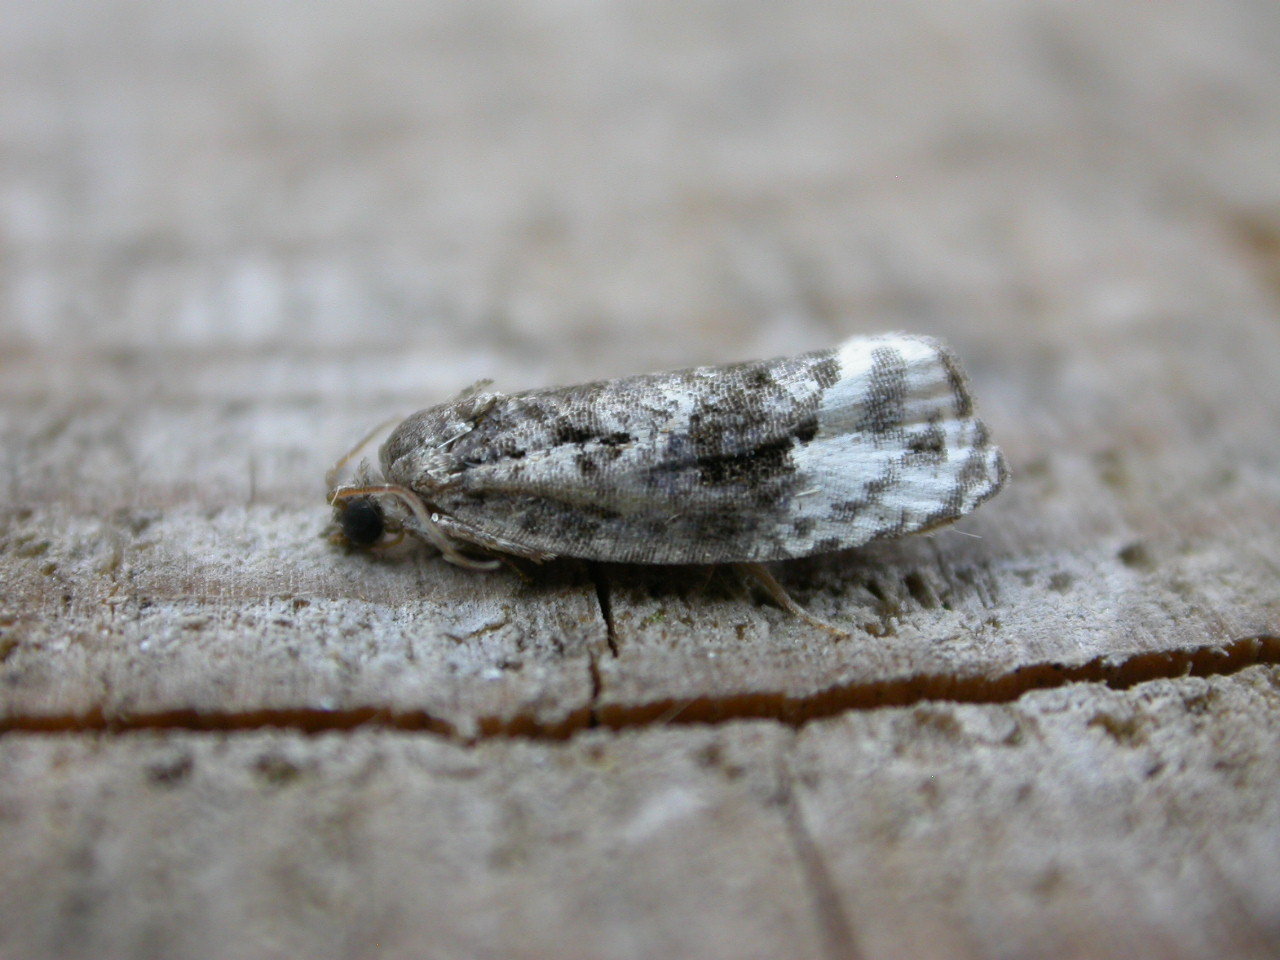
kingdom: Animalia
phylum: Arthropoda
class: Insecta
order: Lepidoptera
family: Tortricidae
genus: Apotomis
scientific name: Apotomis betuletana
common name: Birch marble
